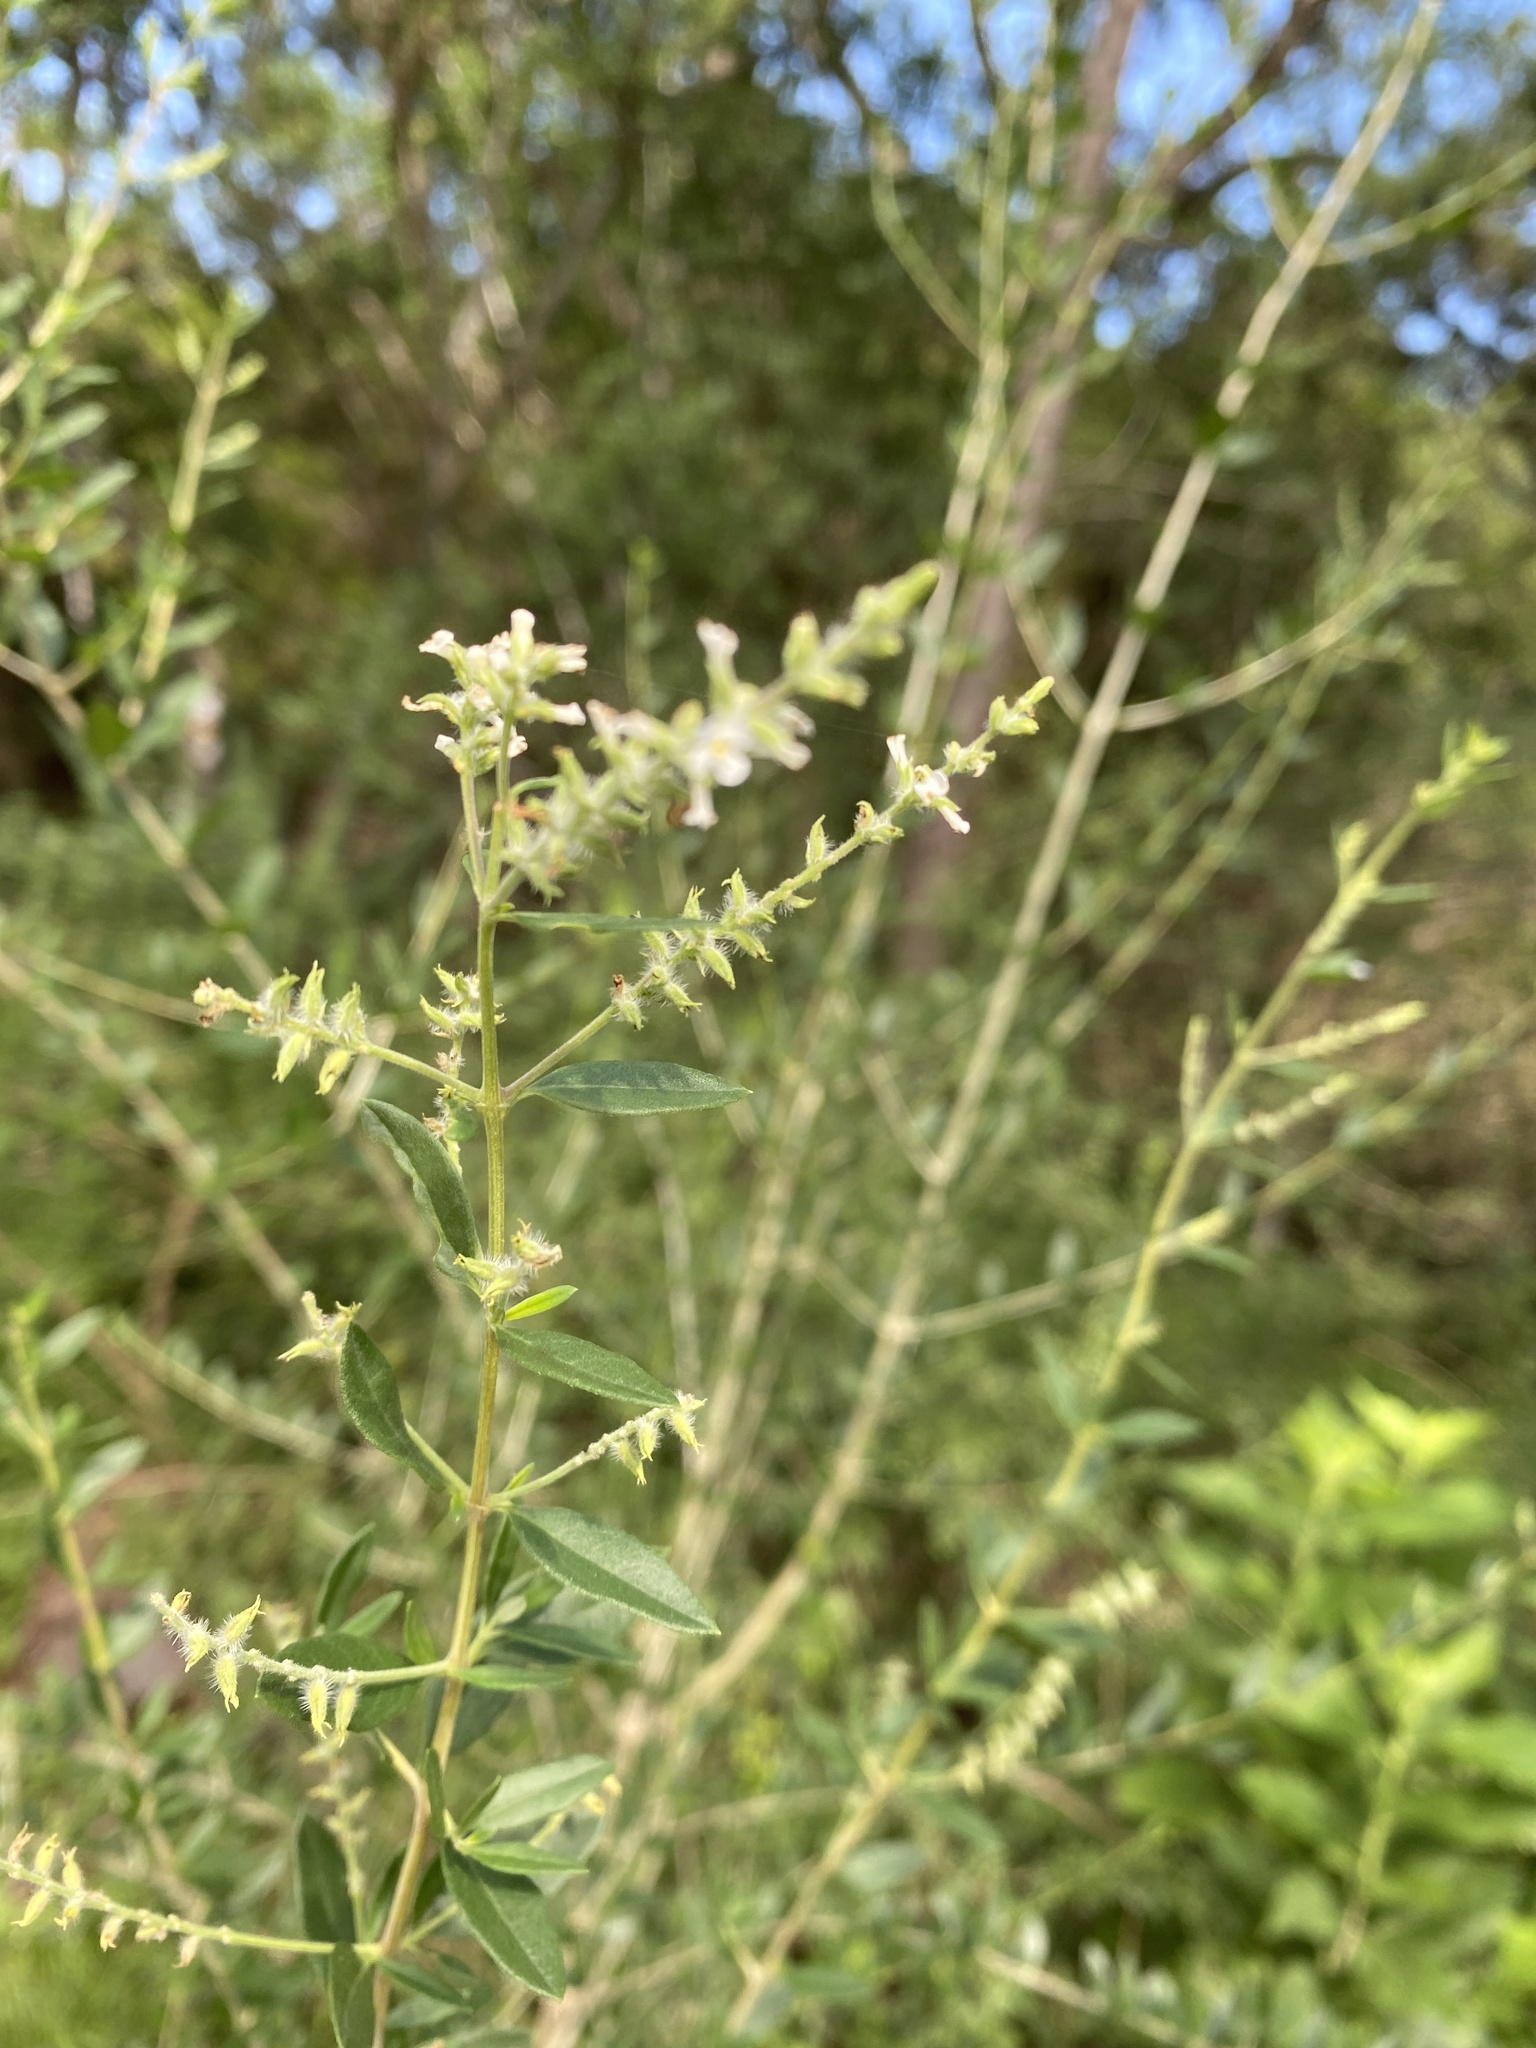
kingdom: Plantae
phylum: Tracheophyta
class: Magnoliopsida
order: Lamiales
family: Verbenaceae
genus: Aloysia
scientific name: Aloysia gratissima
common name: Common bee-brush
